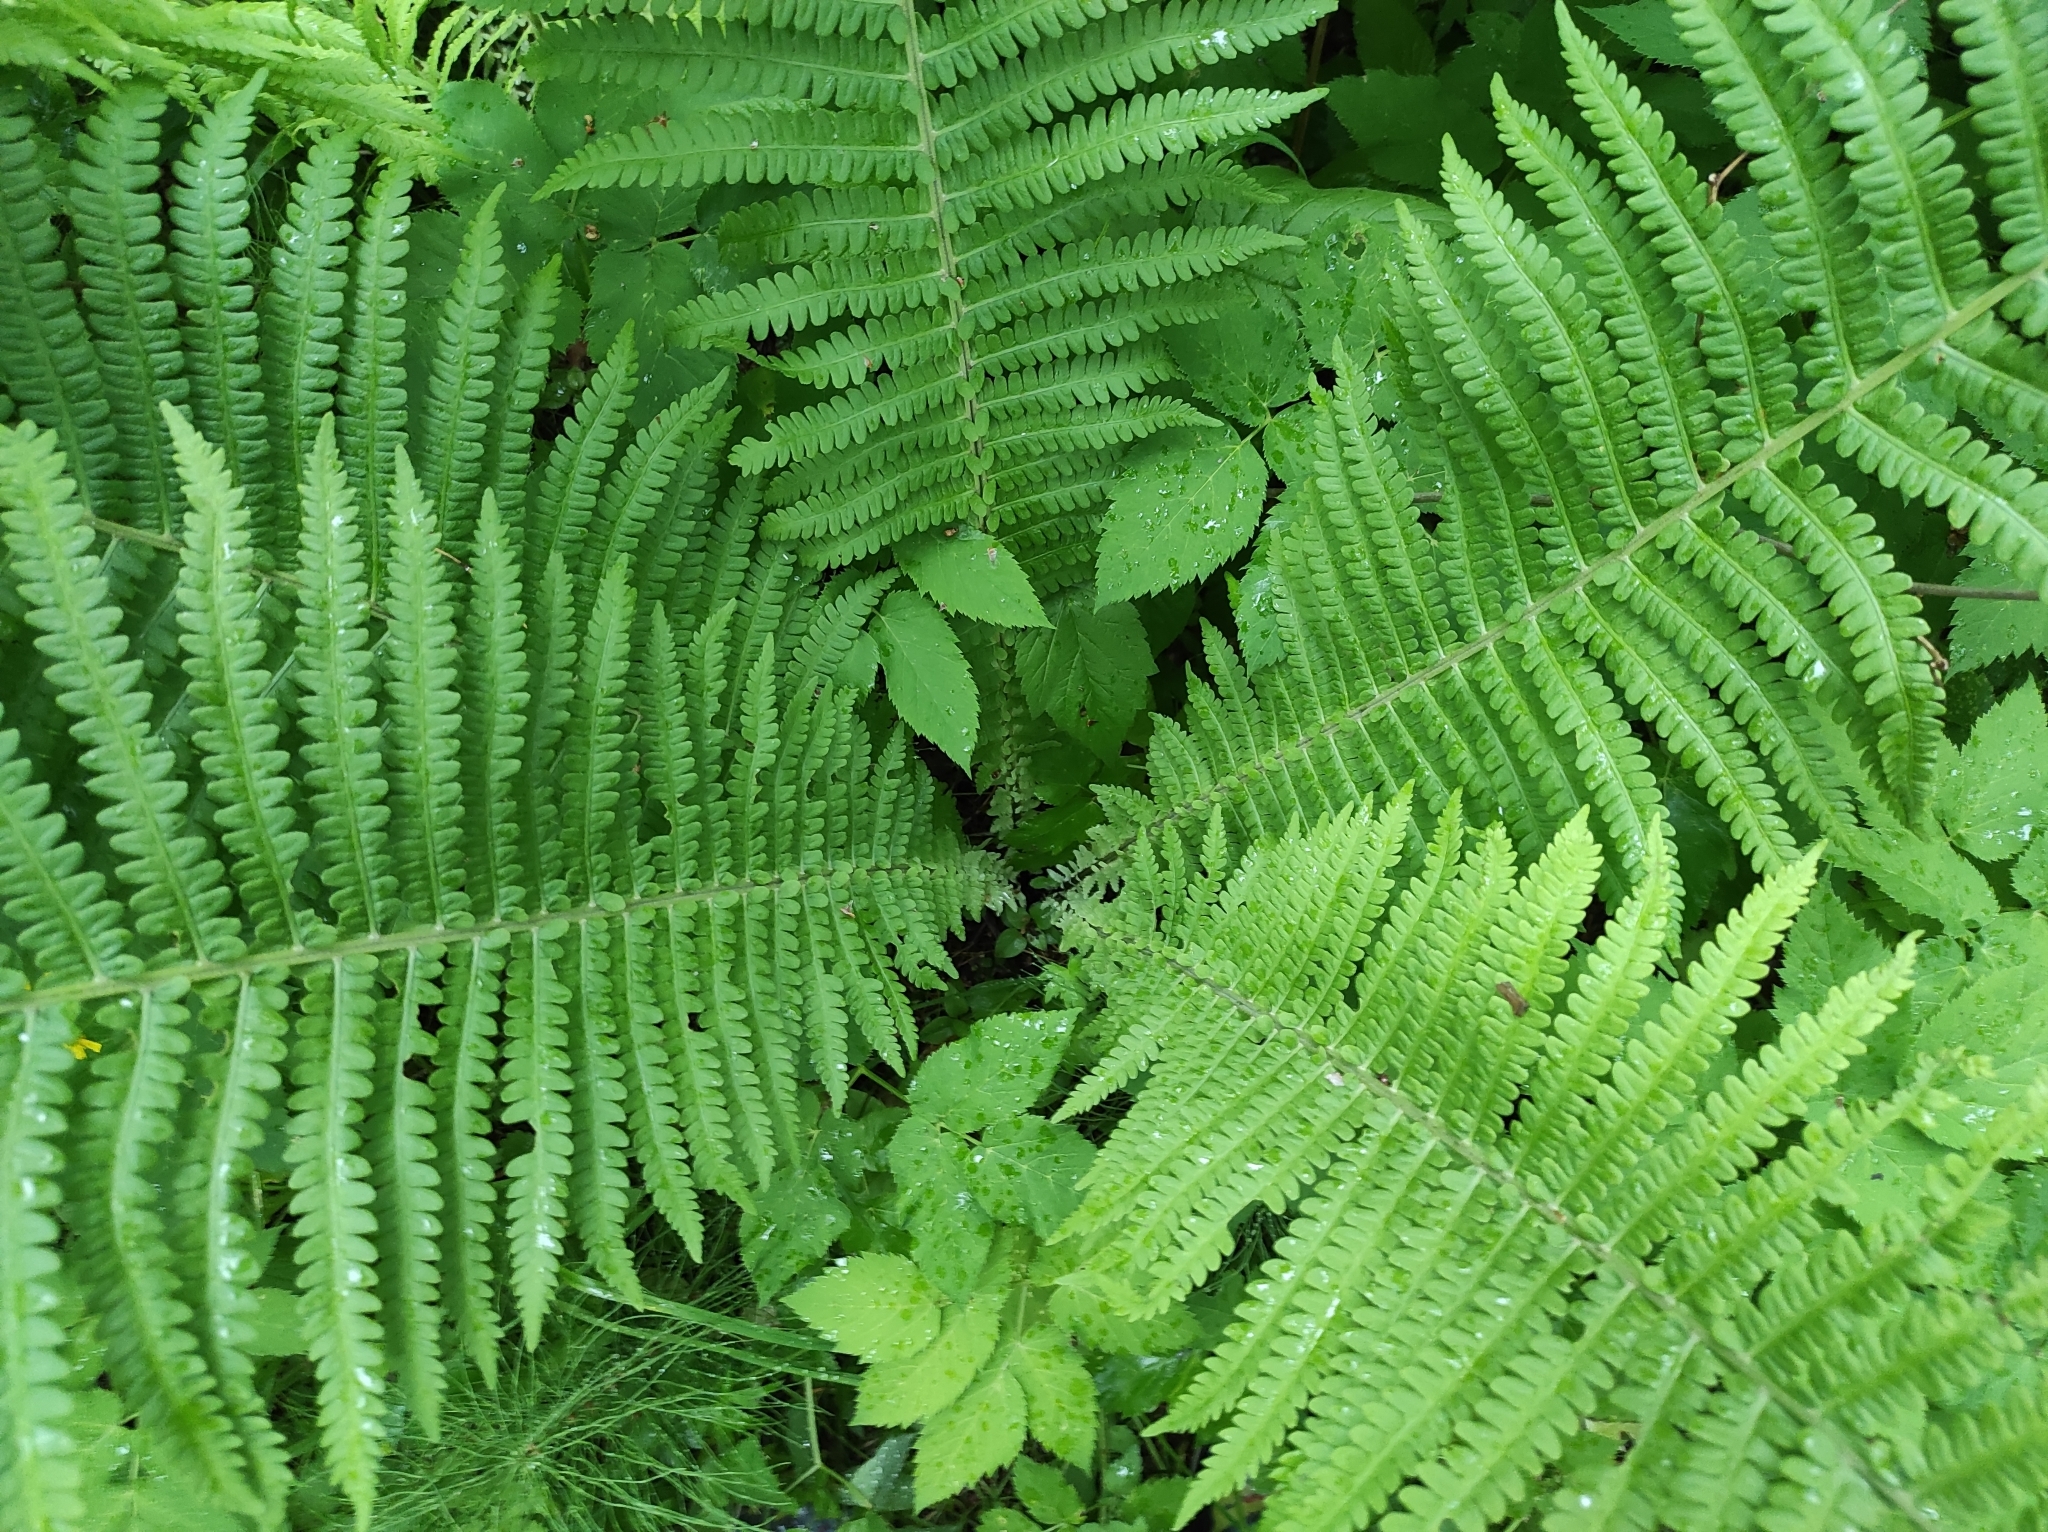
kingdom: Plantae
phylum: Tracheophyta
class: Polypodiopsida
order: Polypodiales
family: Onocleaceae
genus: Matteuccia
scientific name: Matteuccia struthiopteris
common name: Ostrich fern
